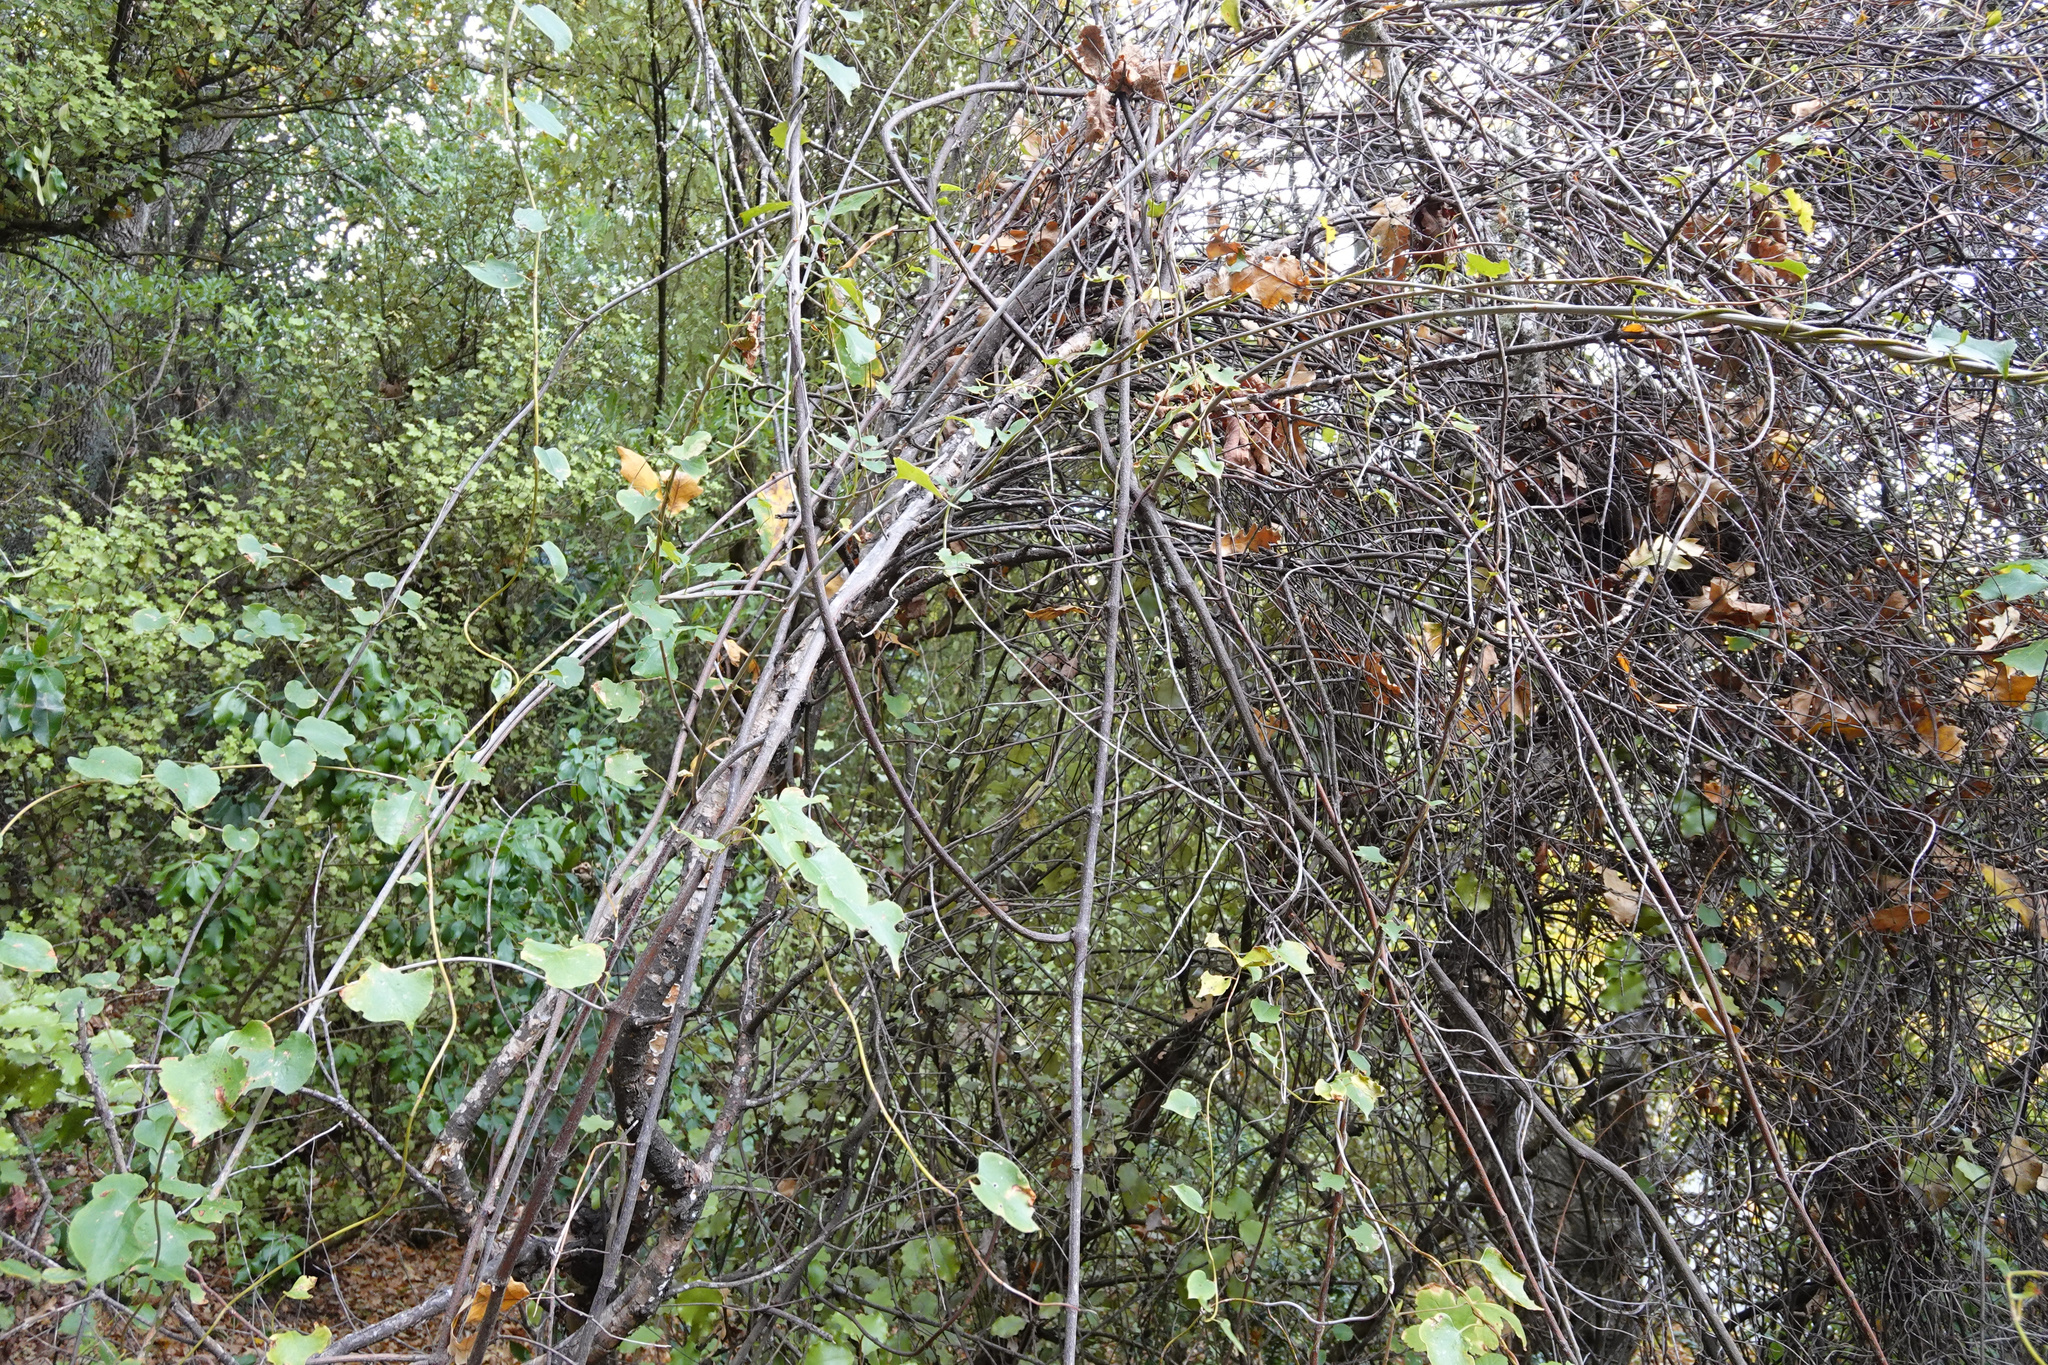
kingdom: Plantae
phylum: Tracheophyta
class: Magnoliopsida
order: Caryophyllales
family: Polygonaceae
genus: Muehlenbeckia
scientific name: Muehlenbeckia australis
